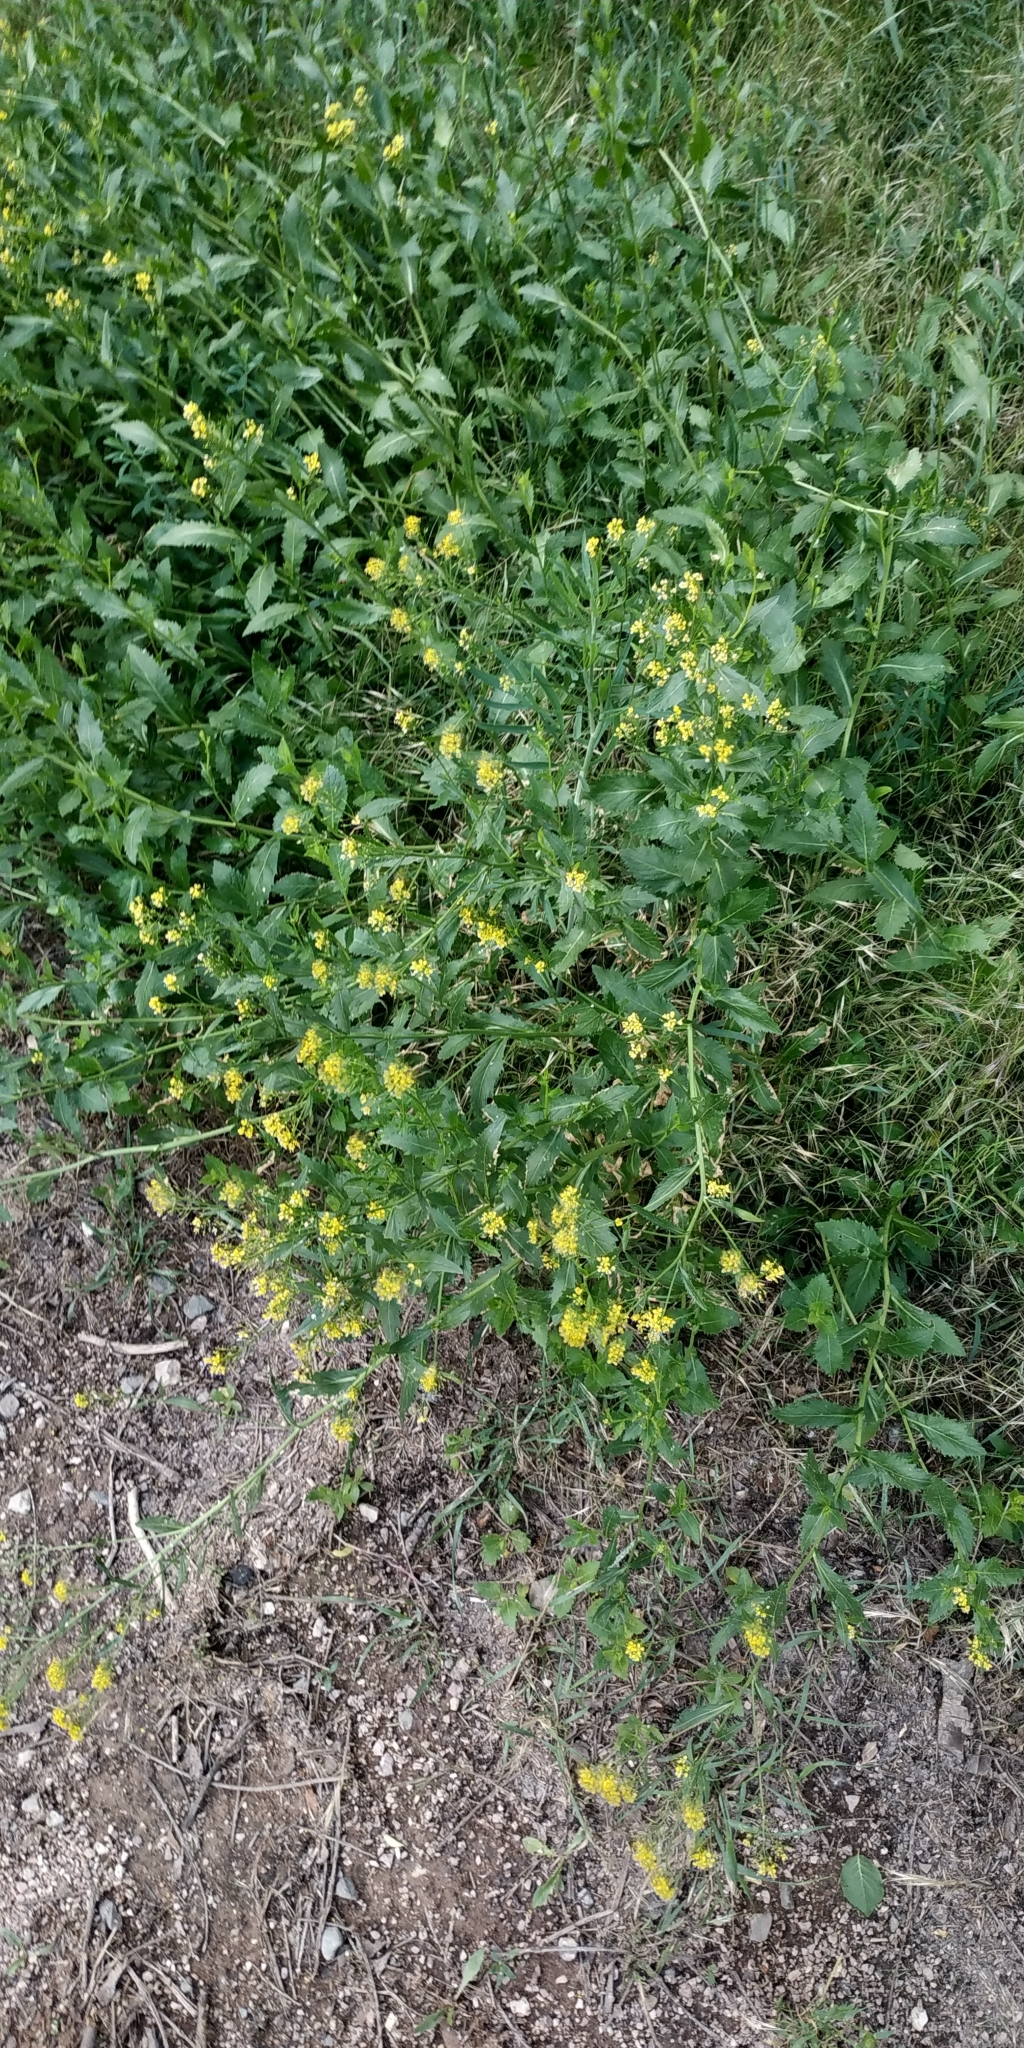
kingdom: Plantae
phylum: Tracheophyta
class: Magnoliopsida
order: Brassicales
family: Brassicaceae
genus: Bunias
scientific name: Bunias orientalis
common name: Warty-cabbage
